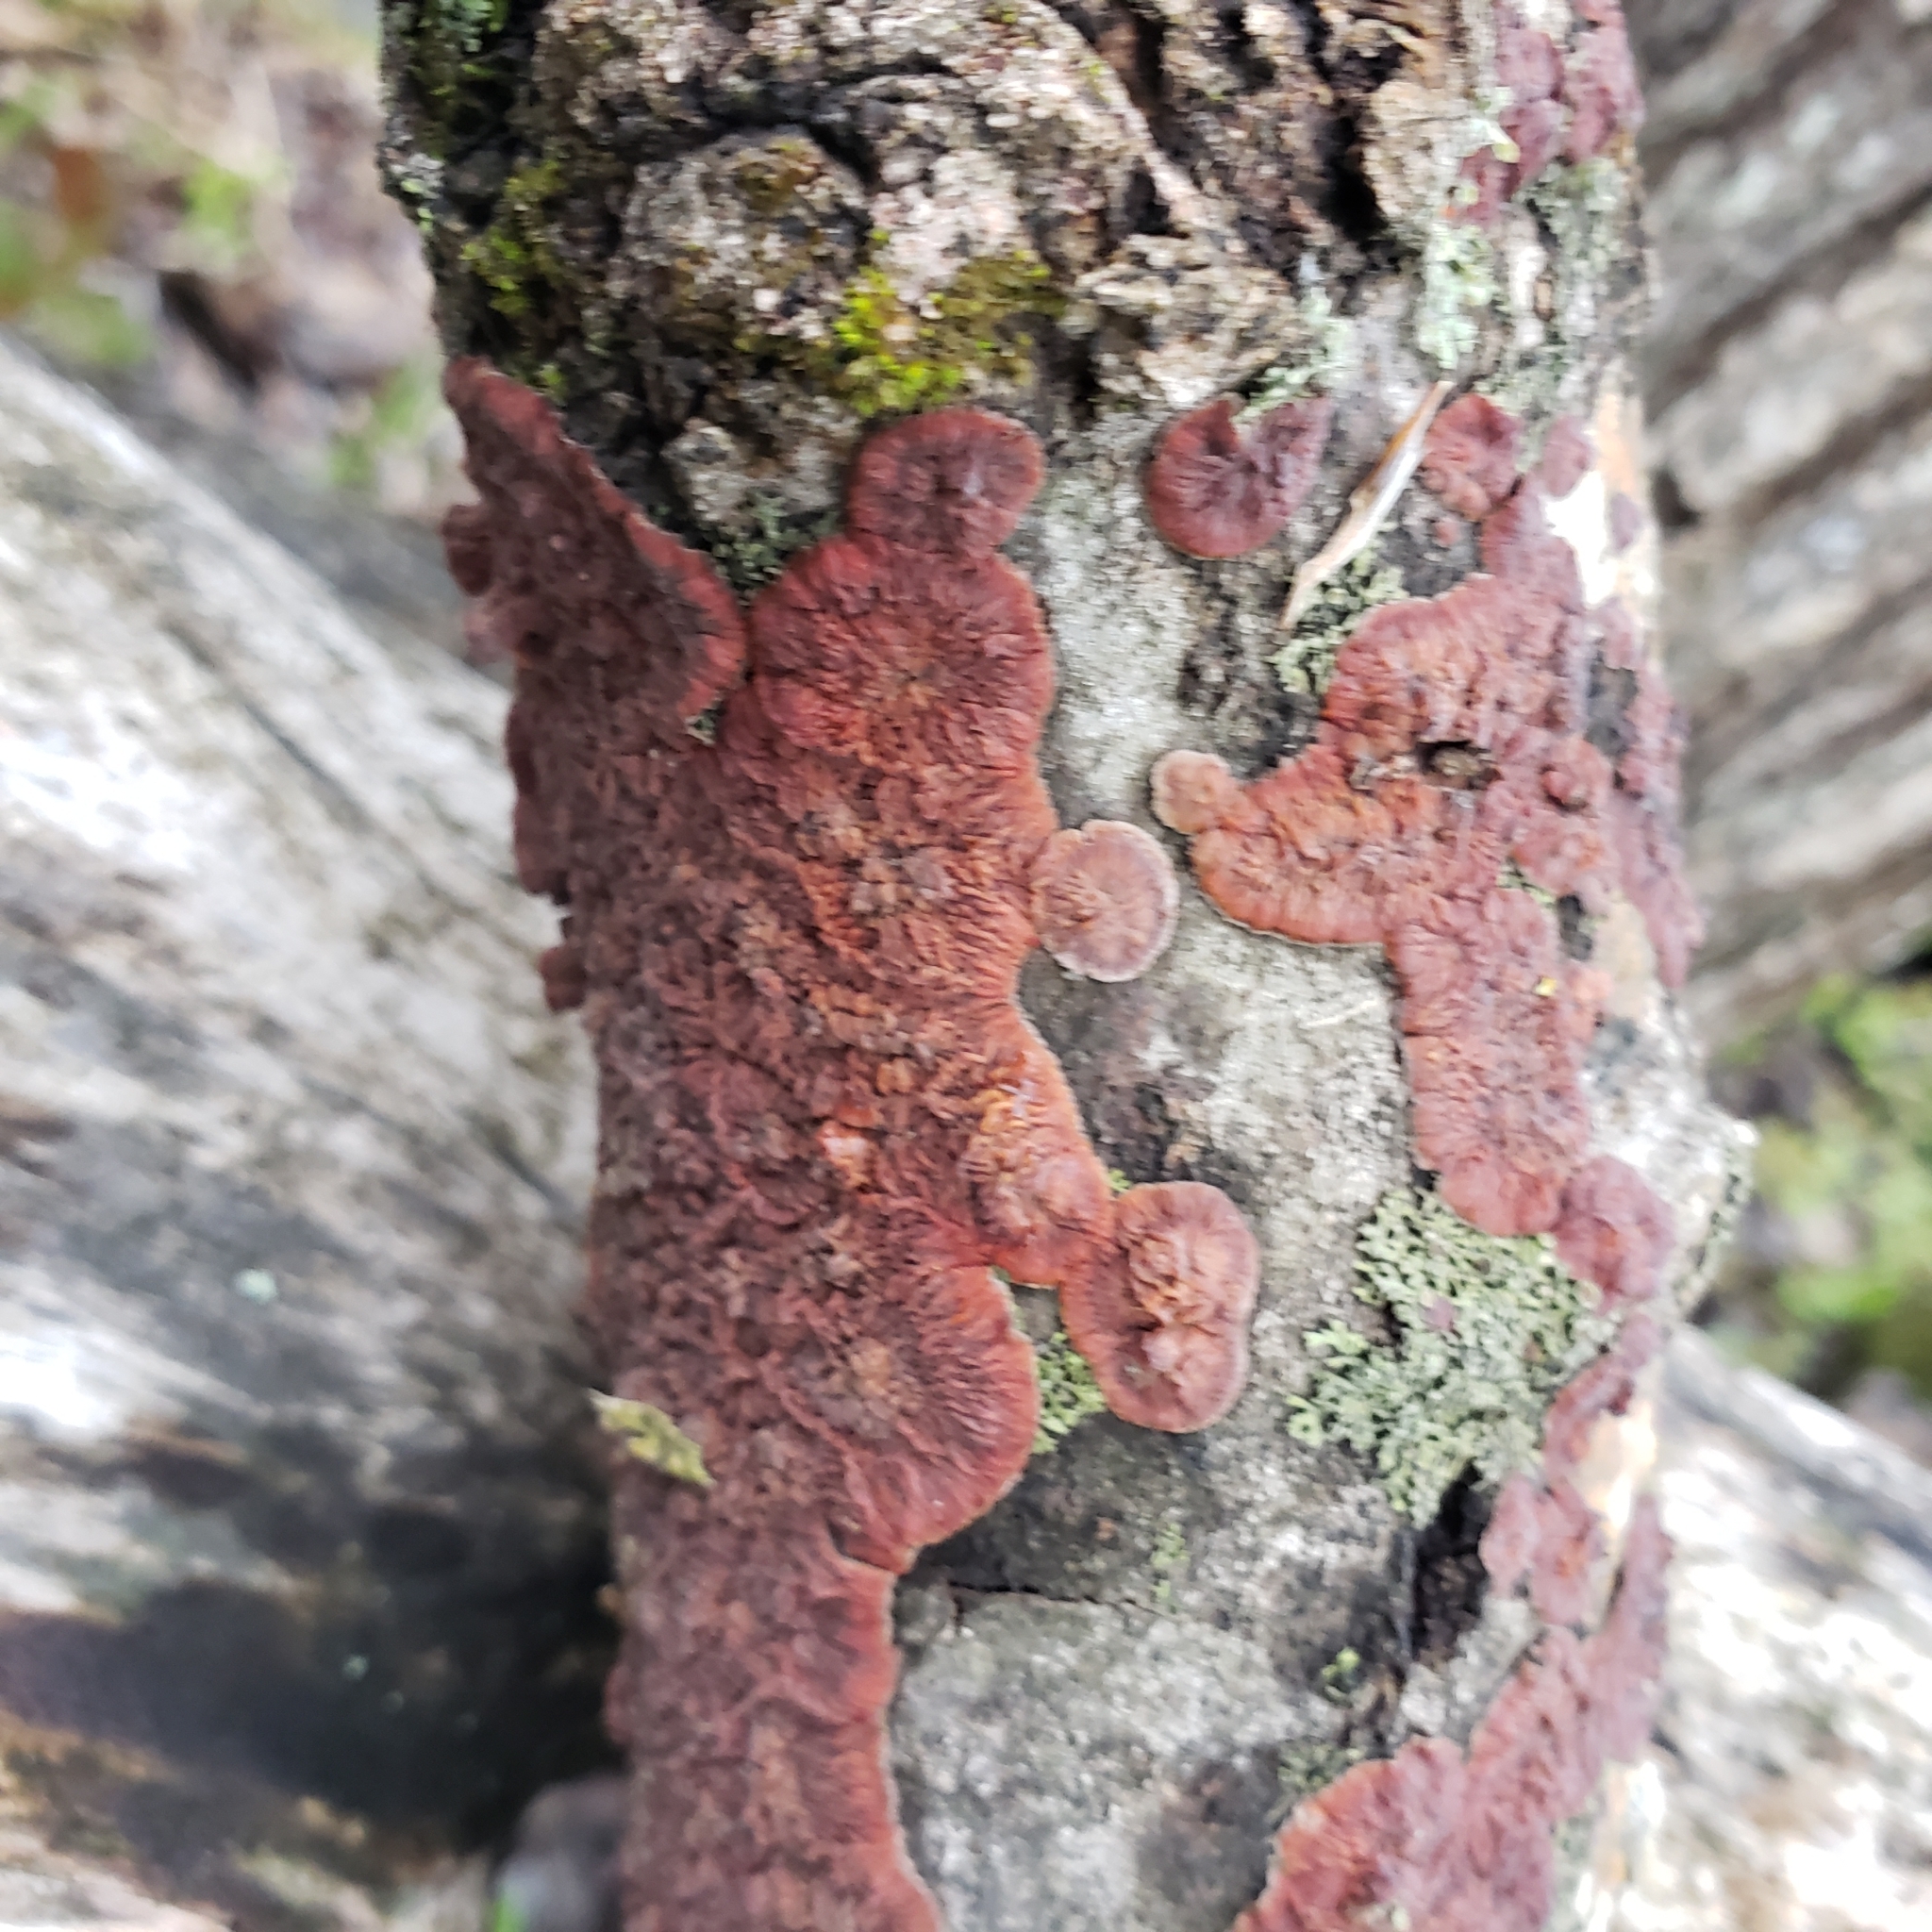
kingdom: Fungi
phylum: Basidiomycota
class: Agaricomycetes
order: Polyporales
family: Meruliaceae
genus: Phlebia
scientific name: Phlebia radiata
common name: Wrinkled crust
